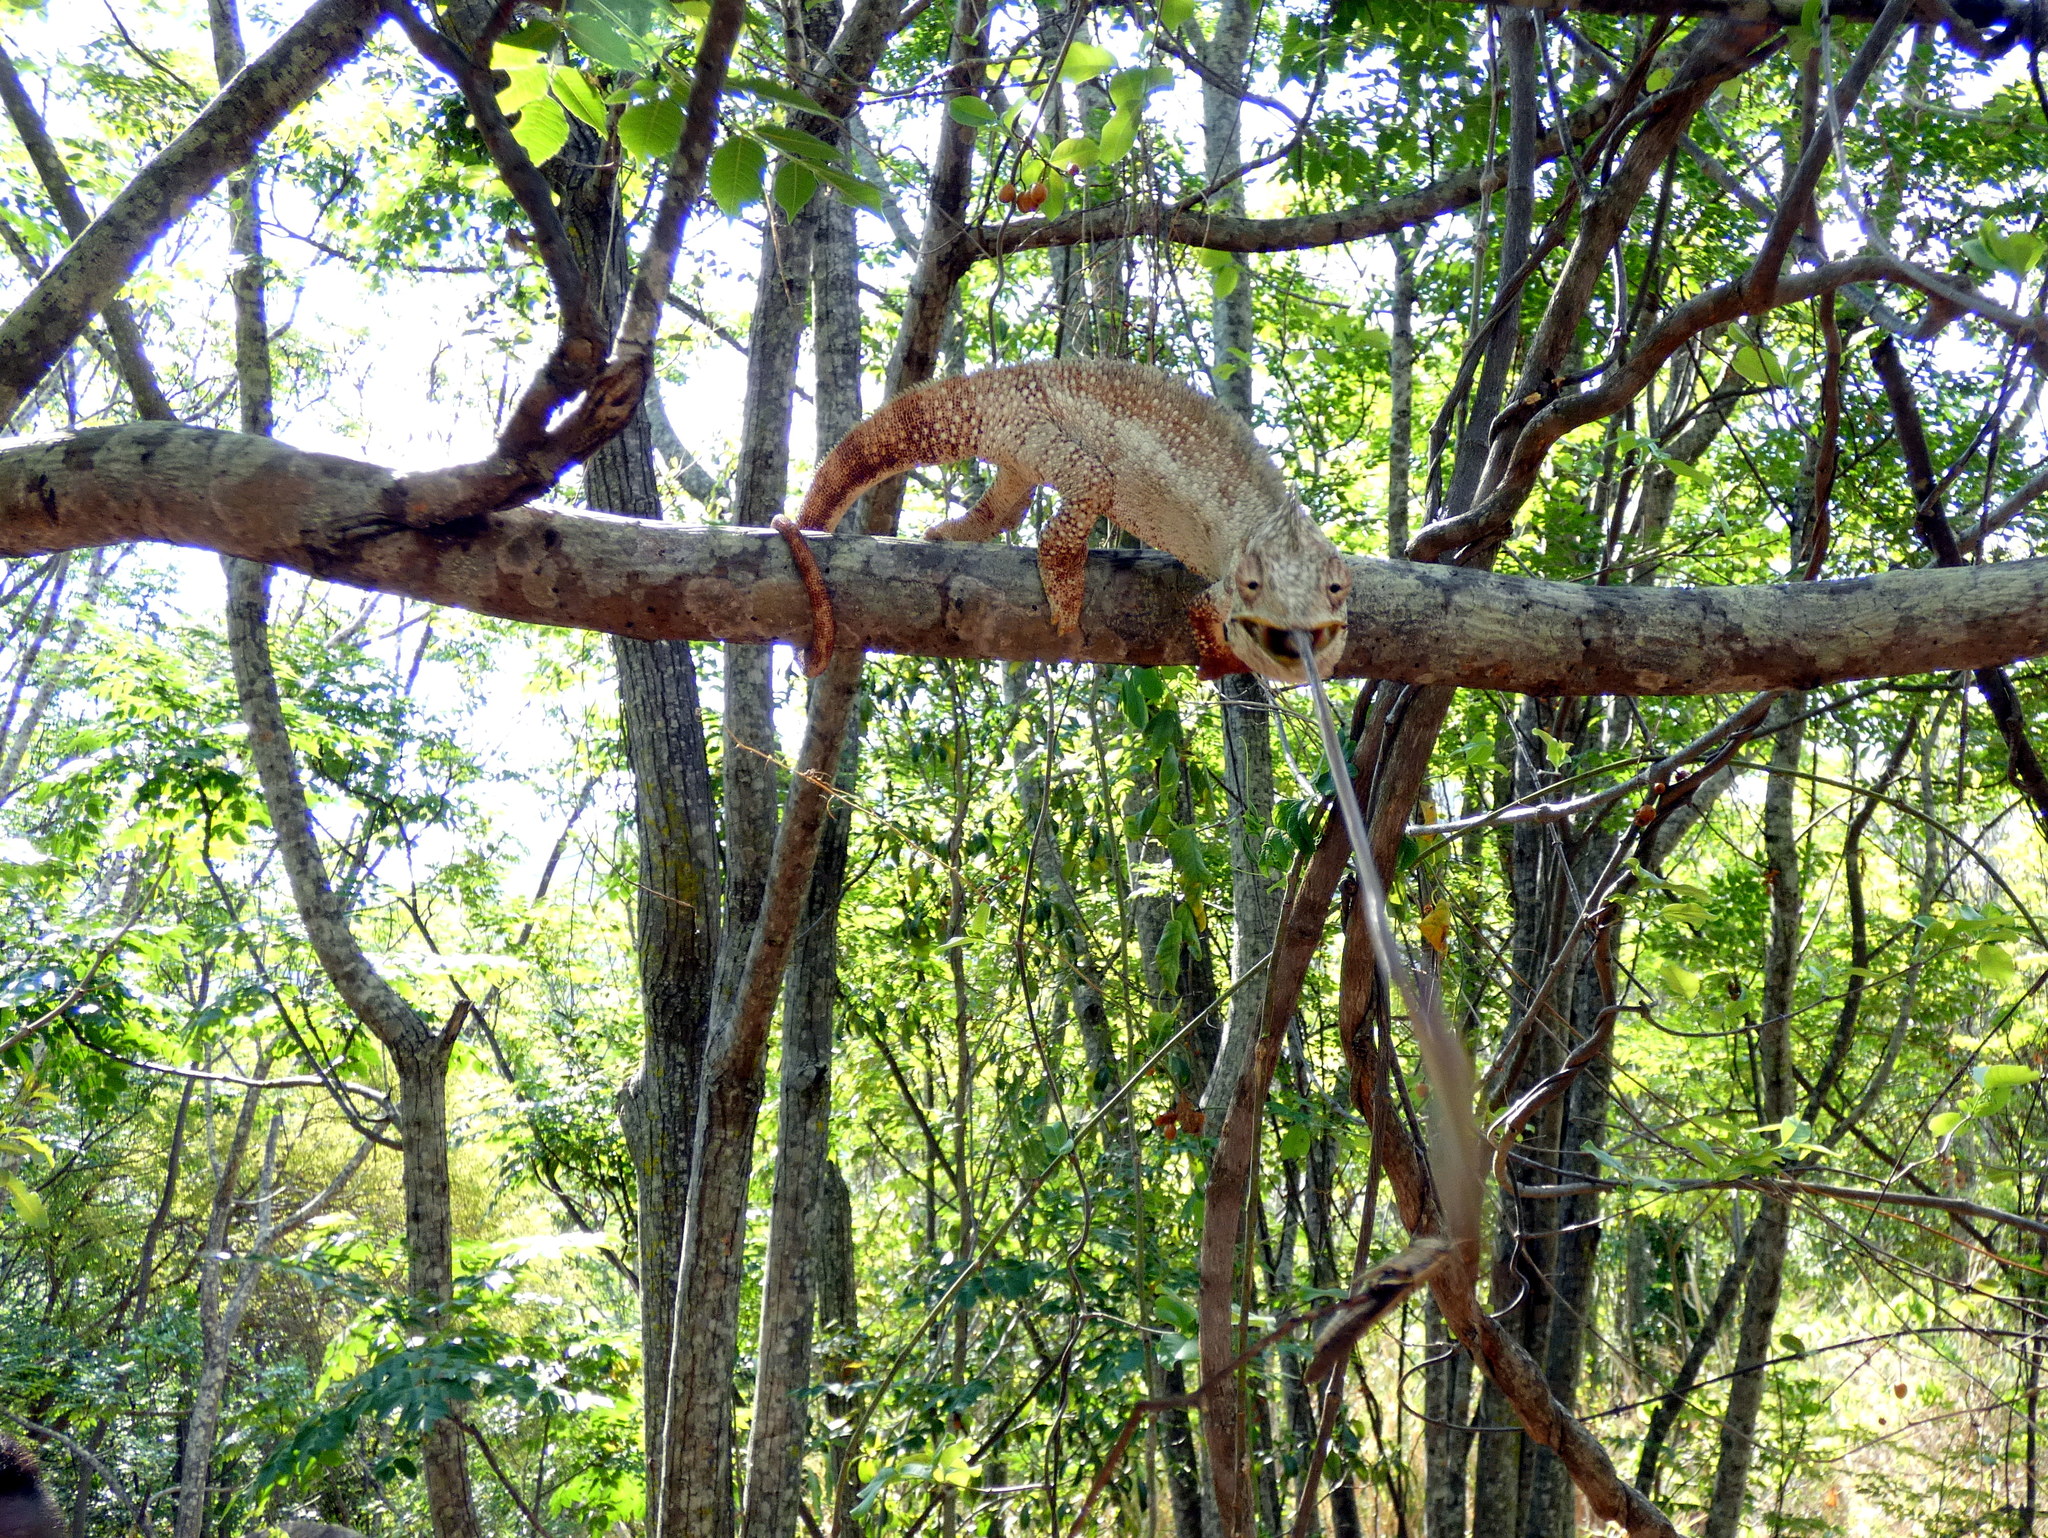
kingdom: Animalia
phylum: Chordata
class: Squamata
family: Chamaeleonidae
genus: Furcifer
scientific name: Furcifer oustaleti
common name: Oustalet's chameleon
